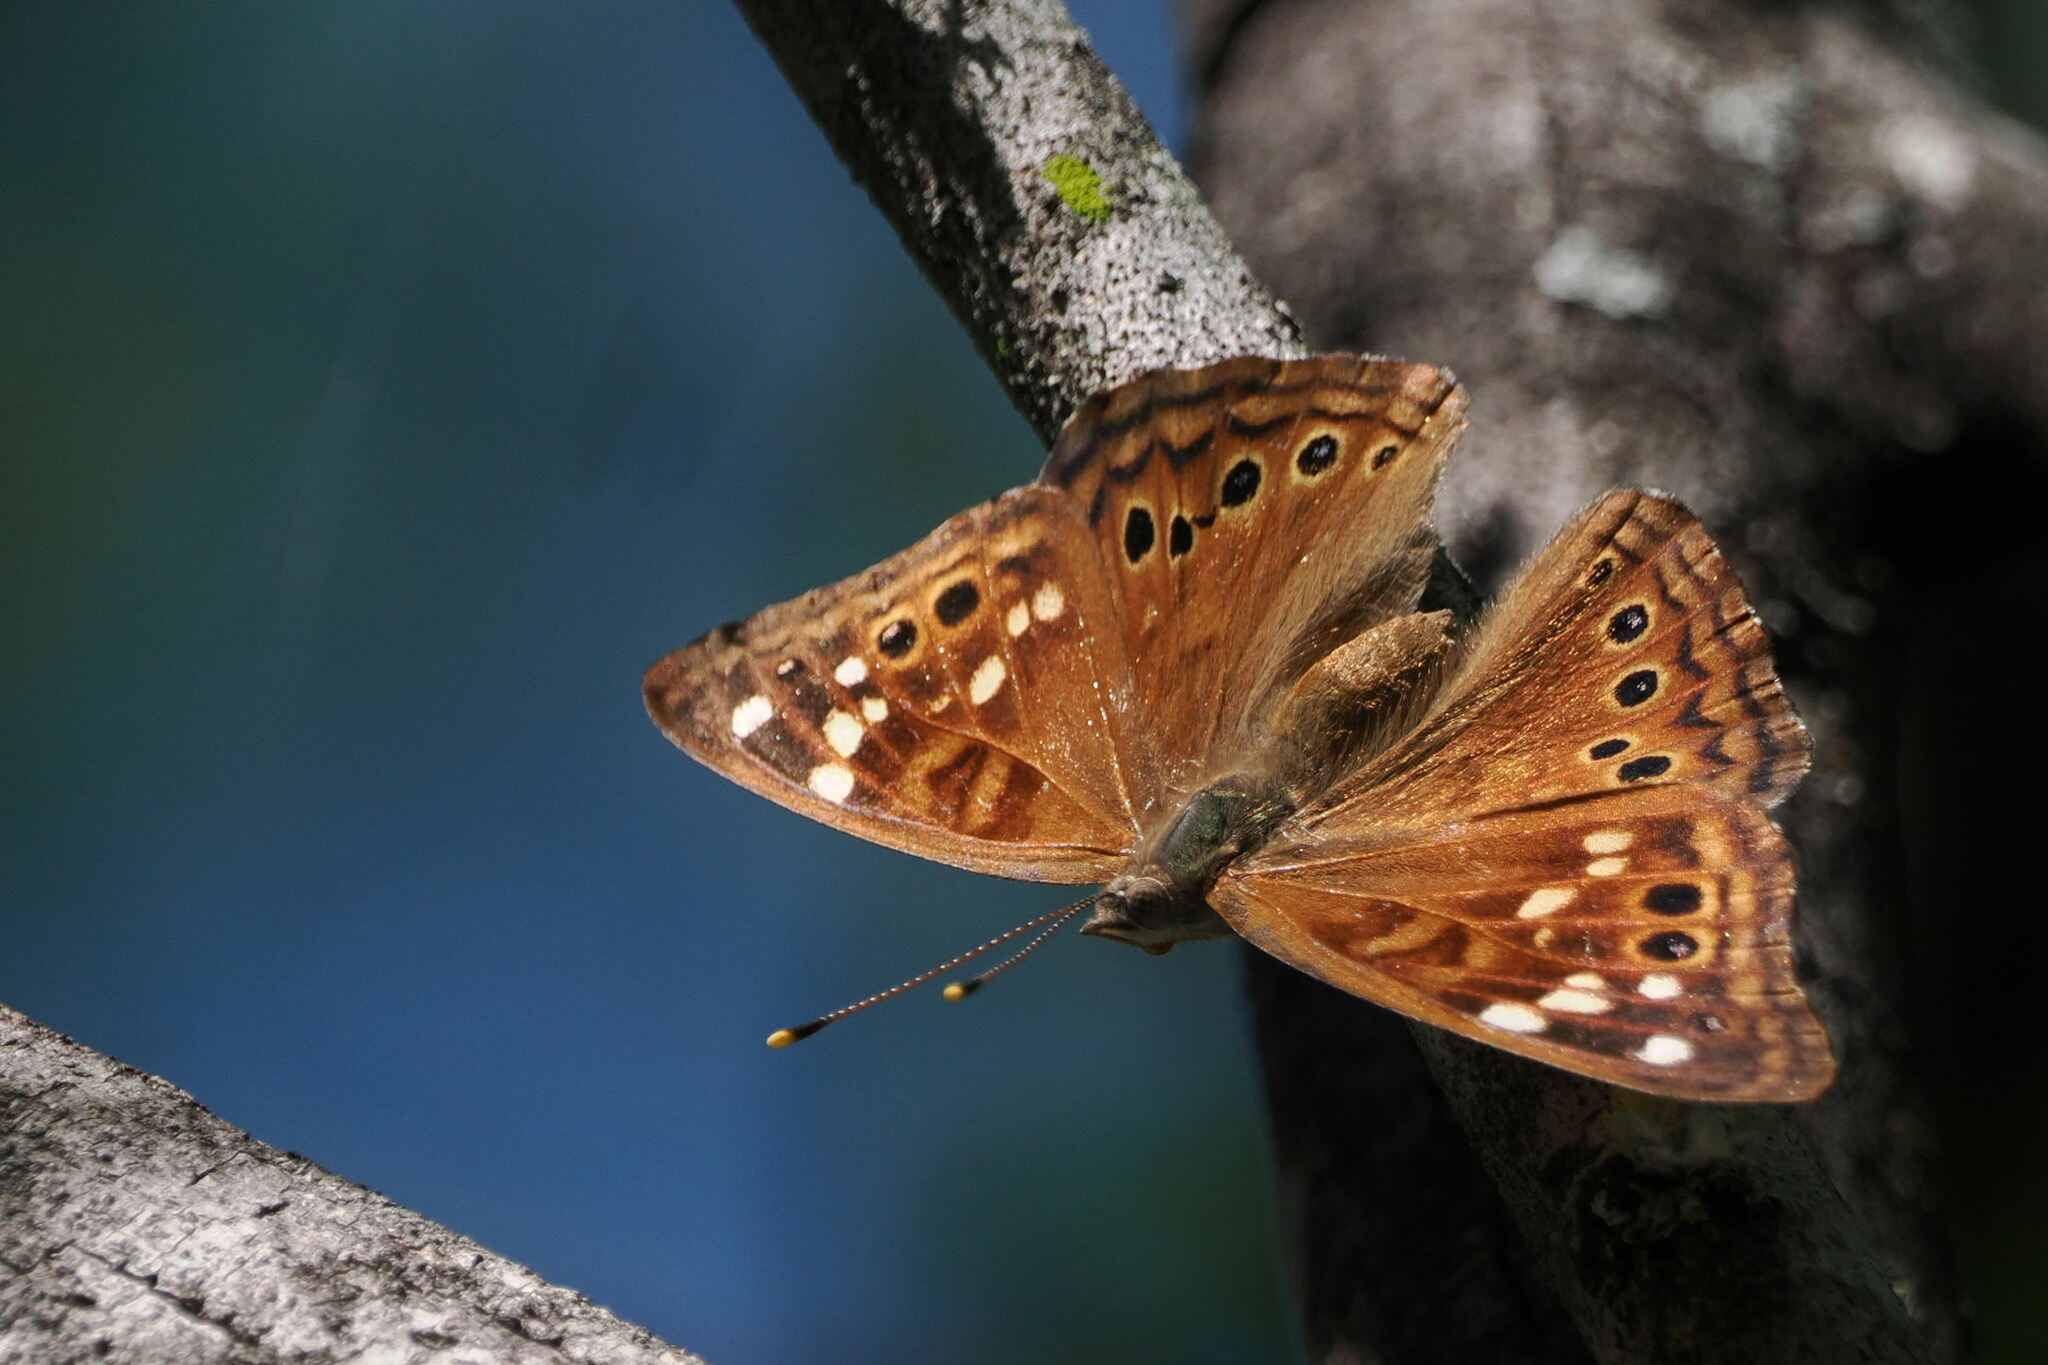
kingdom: Animalia
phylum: Arthropoda
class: Insecta
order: Lepidoptera
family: Nymphalidae
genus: Asterocampa
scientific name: Asterocampa leilia
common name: Empress leilia
